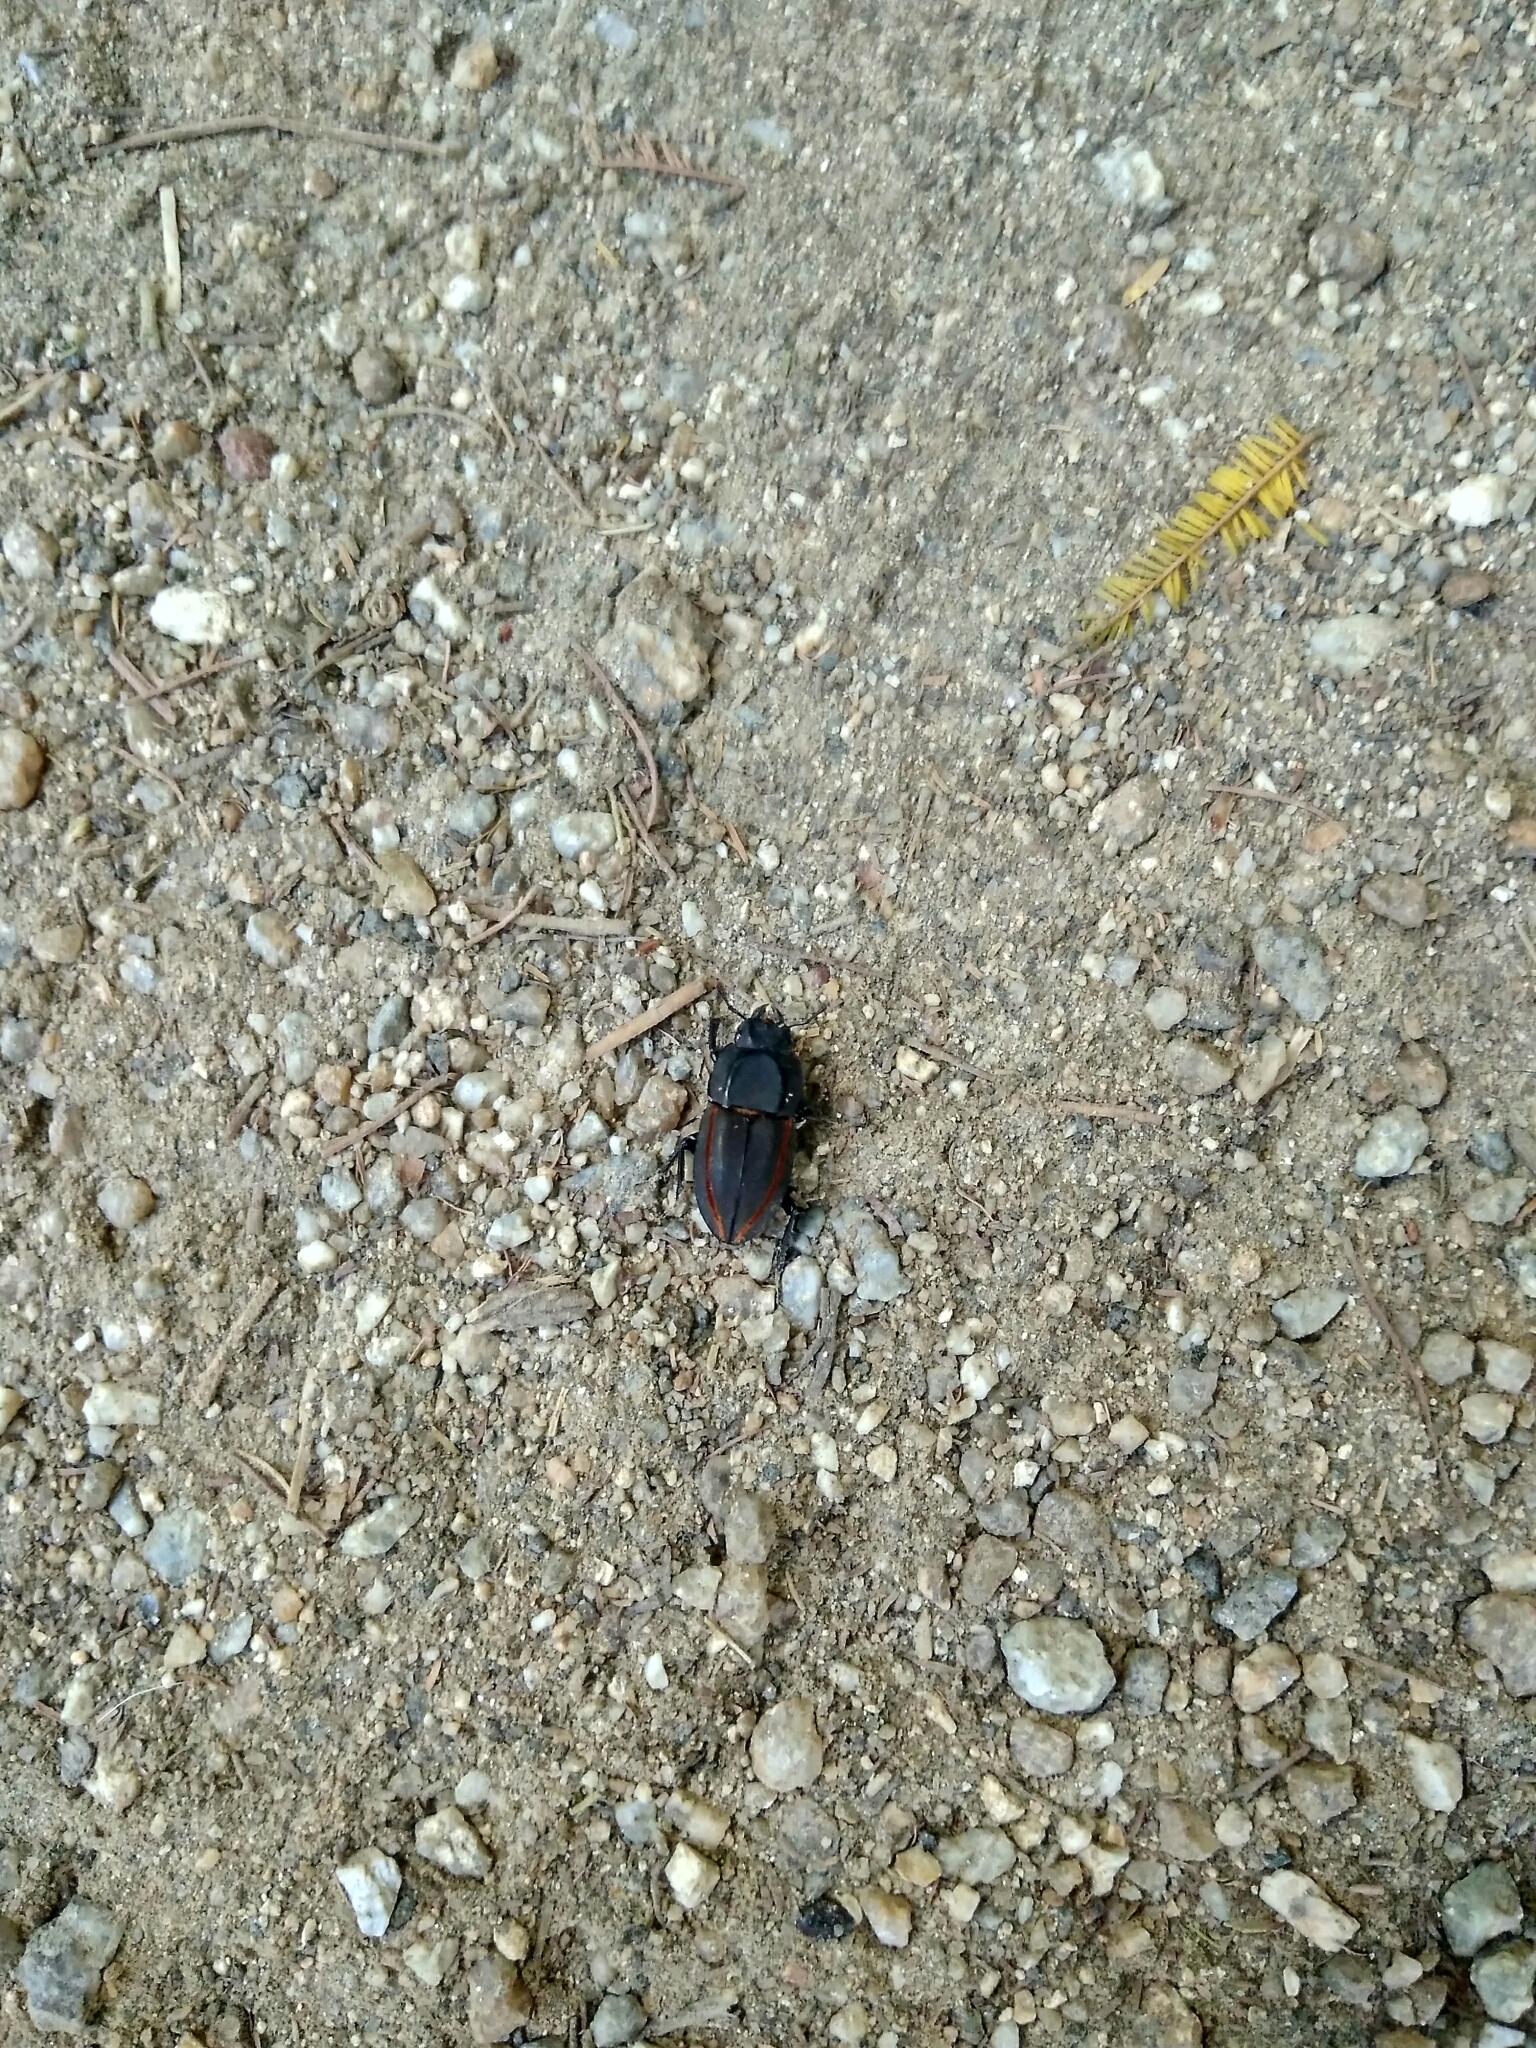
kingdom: Animalia
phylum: Arthropoda
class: Insecta
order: Coleoptera
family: Lucanidae
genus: Erichius
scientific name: Erichius vittatus
